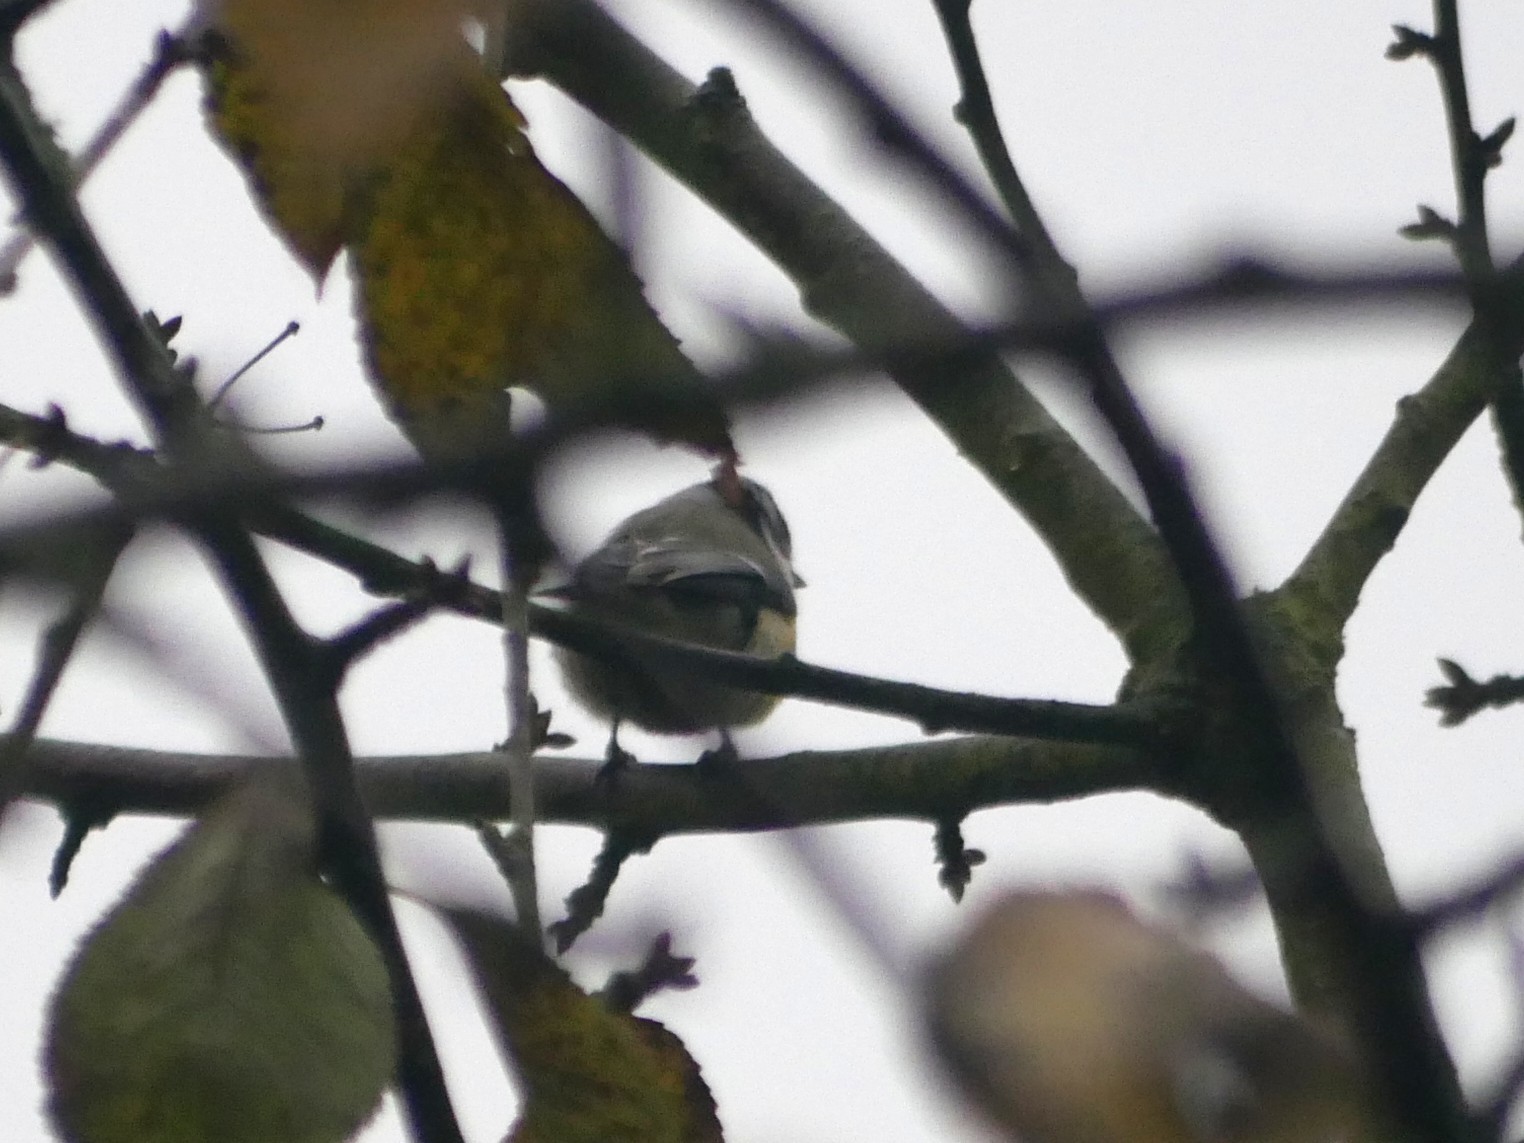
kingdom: Animalia
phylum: Chordata
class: Aves
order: Passeriformes
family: Paridae
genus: Cyanistes
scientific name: Cyanistes caeruleus
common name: Eurasian blue tit
